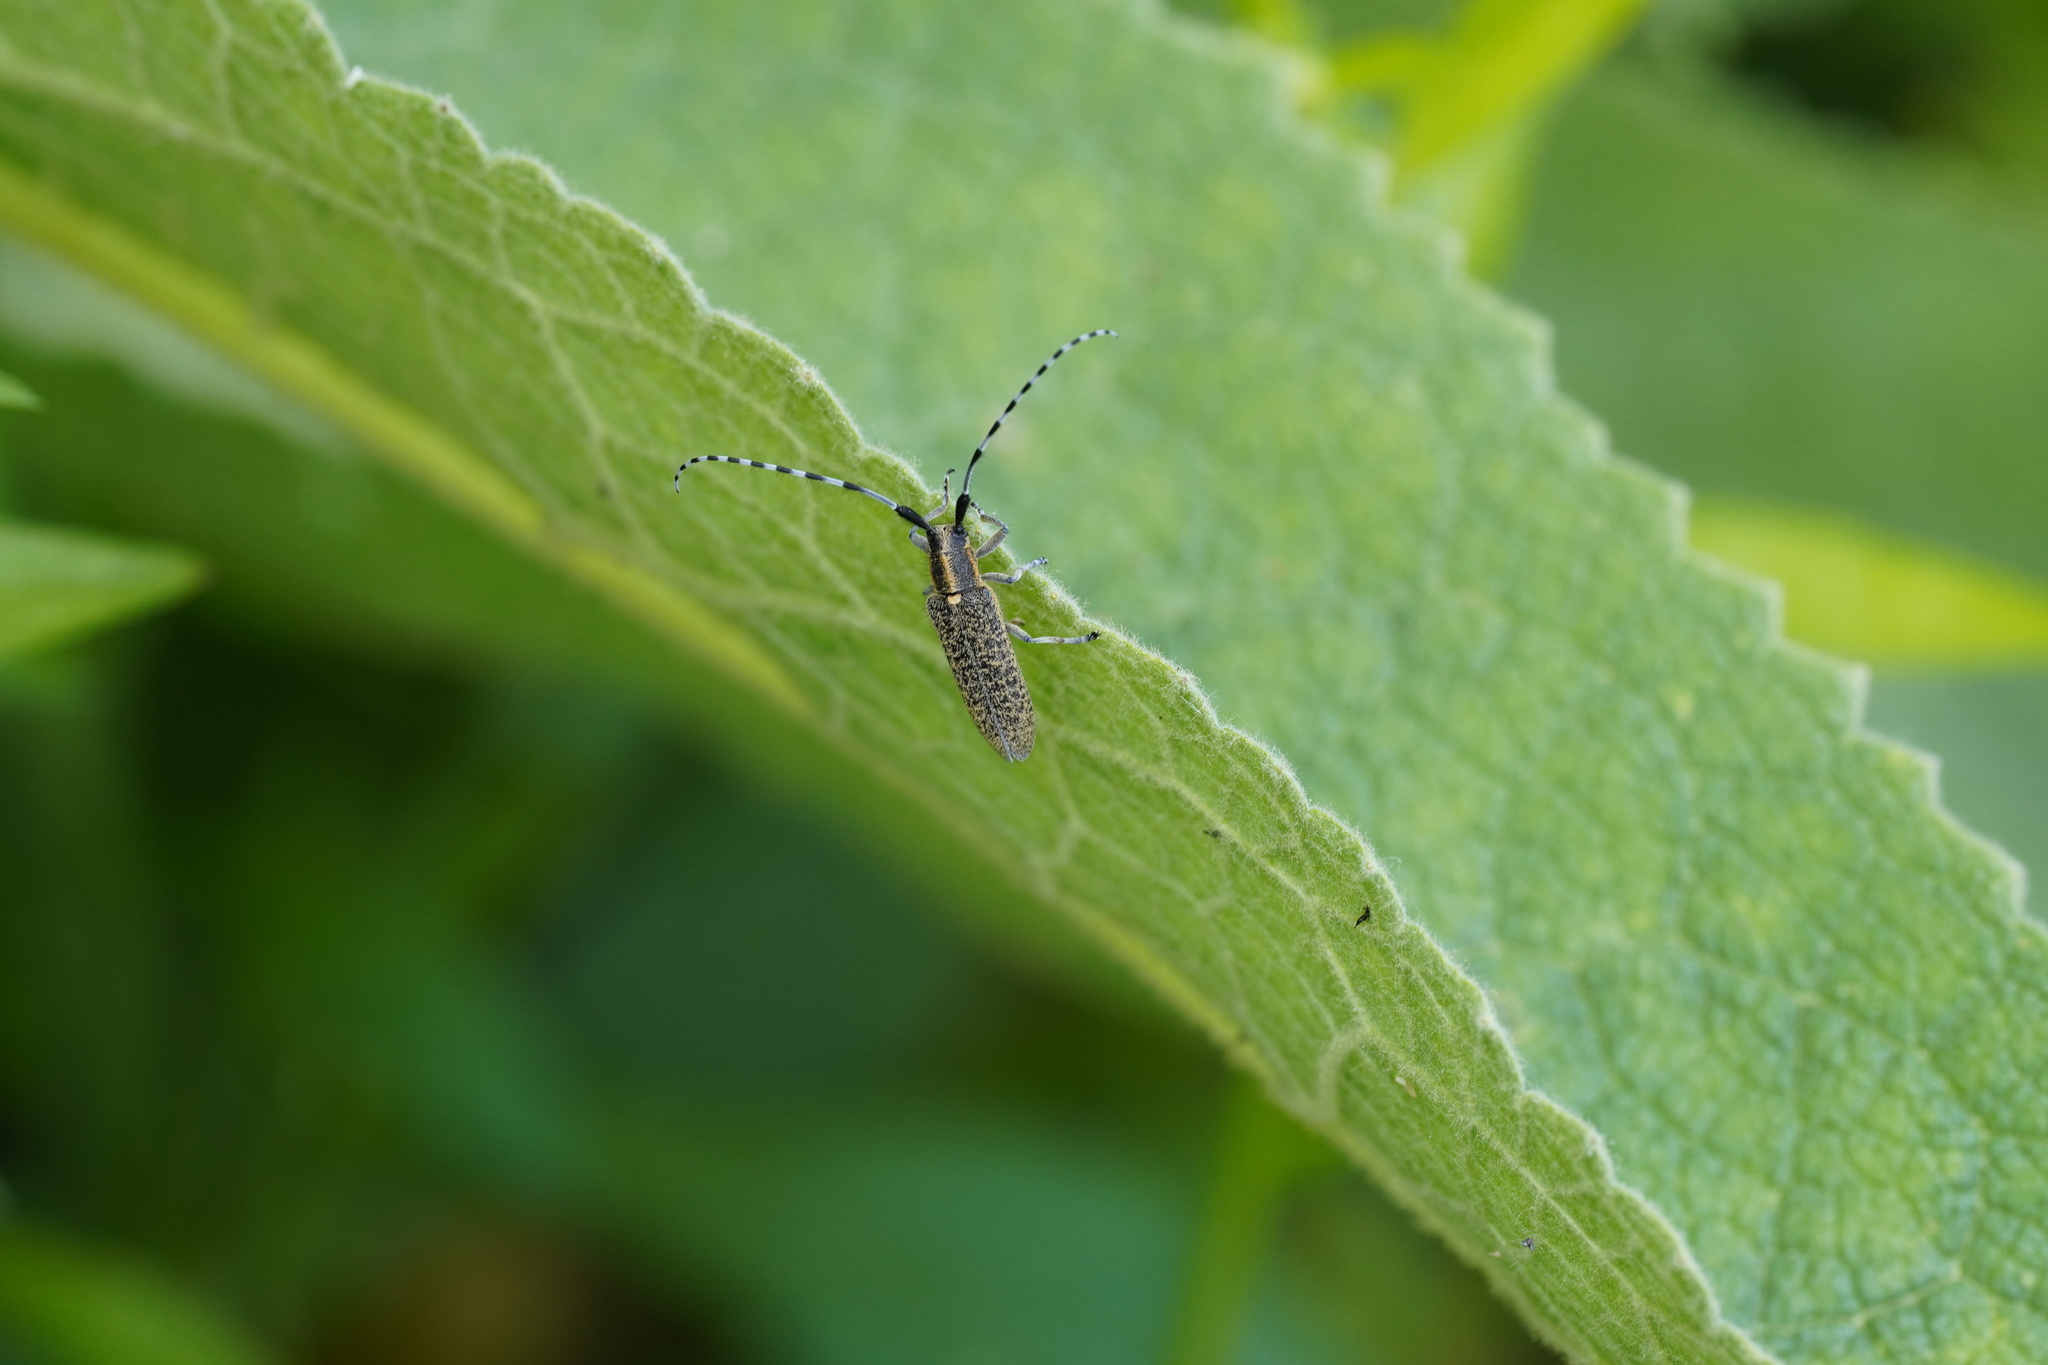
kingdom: Animalia
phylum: Arthropoda
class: Insecta
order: Coleoptera
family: Cerambycidae
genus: Agapanthia
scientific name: Agapanthia villosoviridescens
